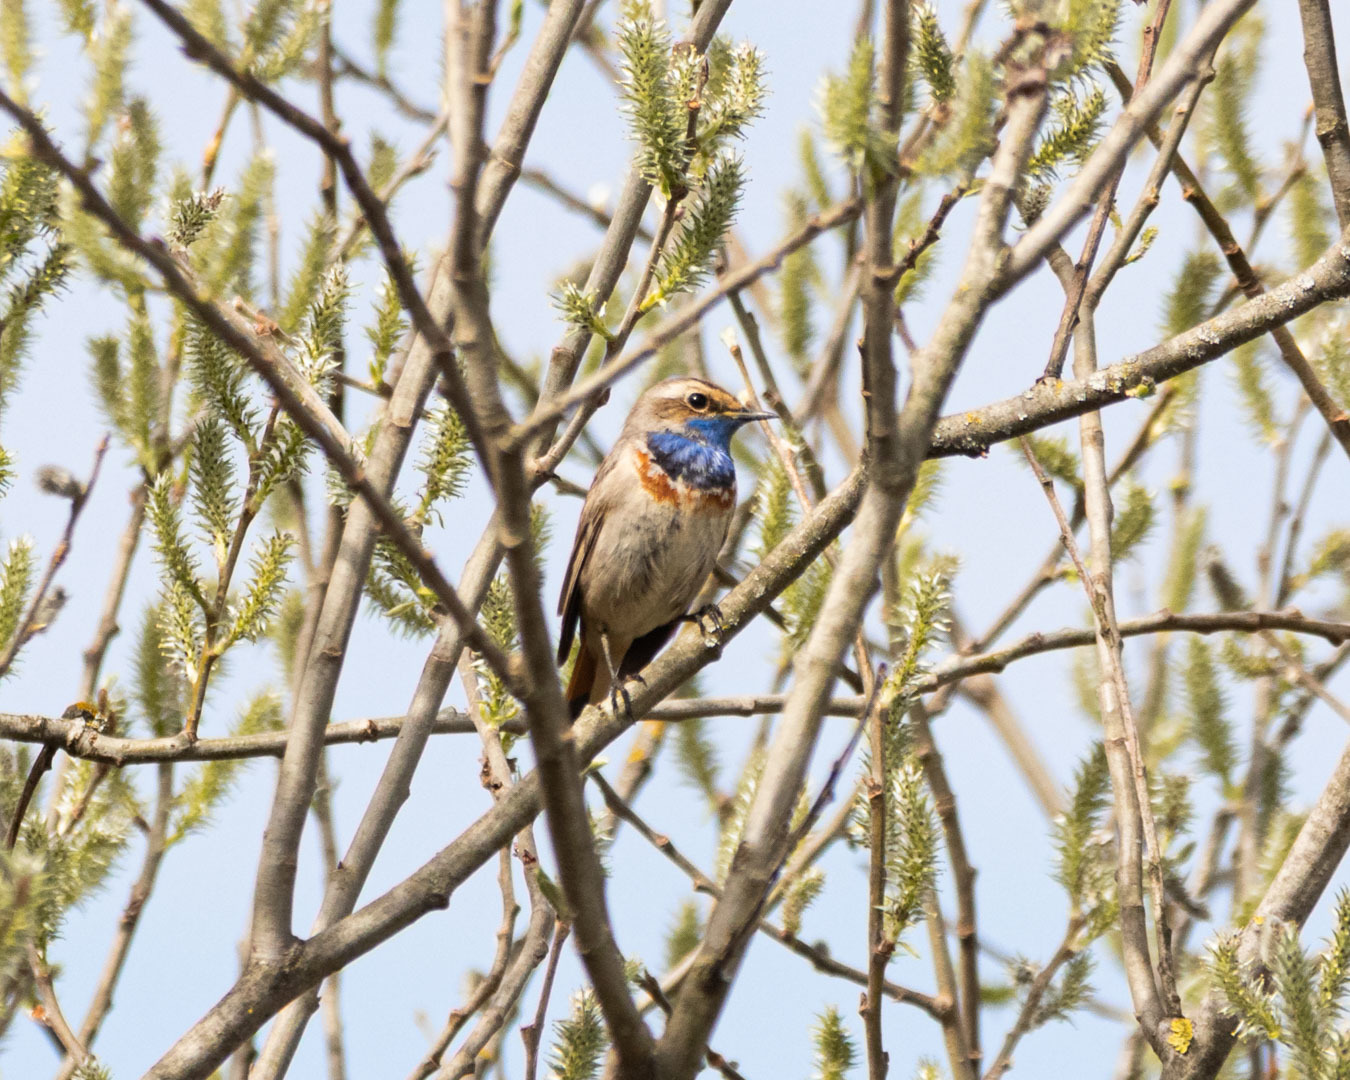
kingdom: Animalia
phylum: Chordata
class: Aves
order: Passeriformes
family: Muscicapidae
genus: Luscinia
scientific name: Luscinia svecica
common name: Bluethroat
